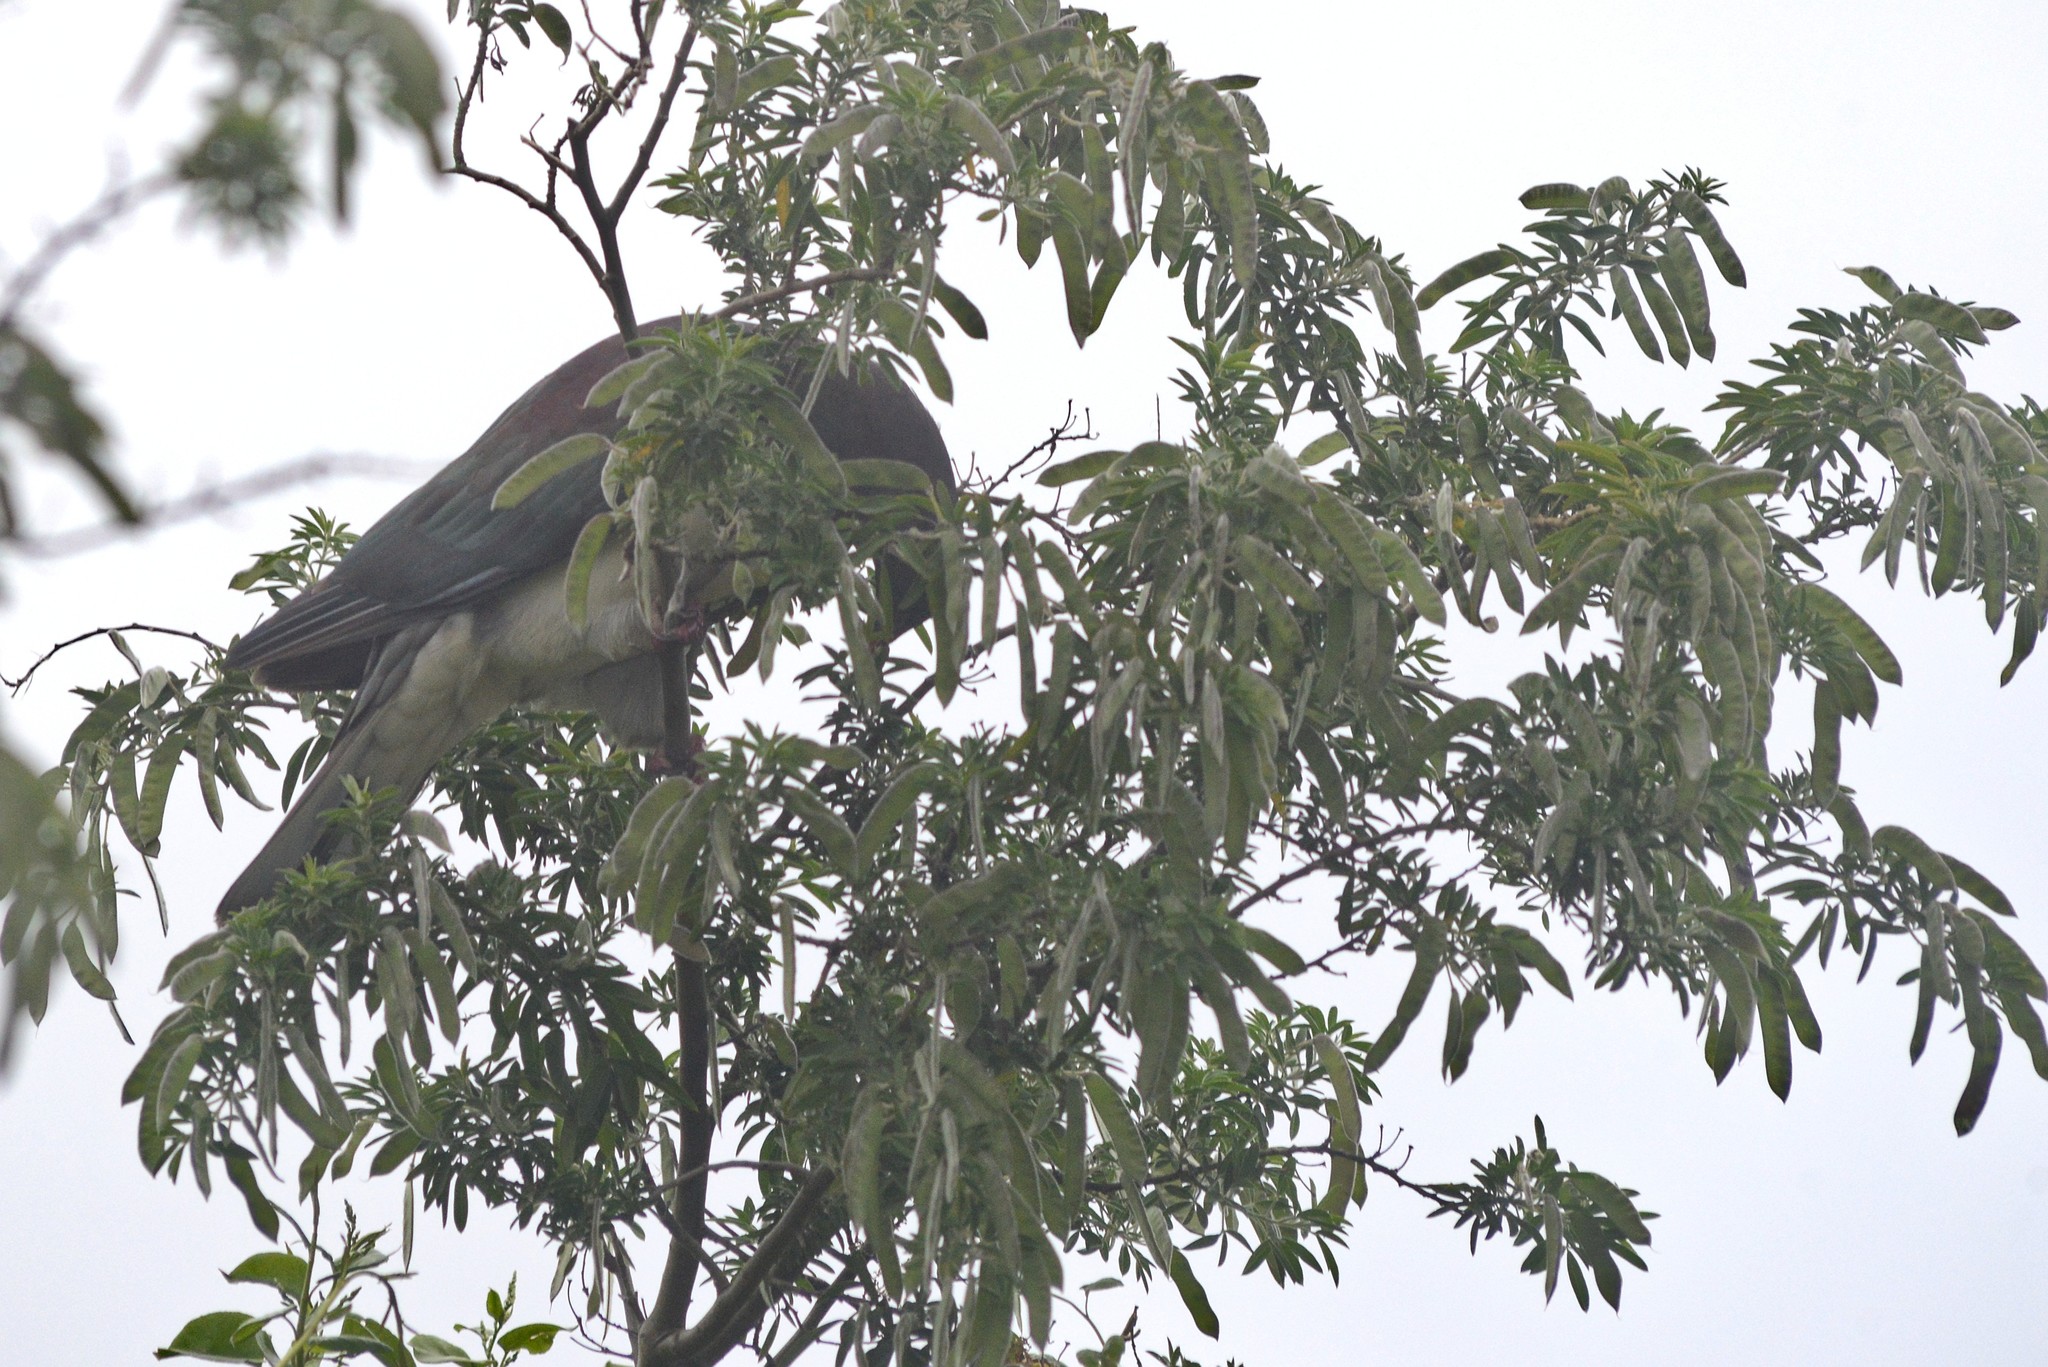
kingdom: Animalia
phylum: Chordata
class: Aves
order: Columbiformes
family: Columbidae
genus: Hemiphaga
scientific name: Hemiphaga novaeseelandiae
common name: New zealand pigeon
